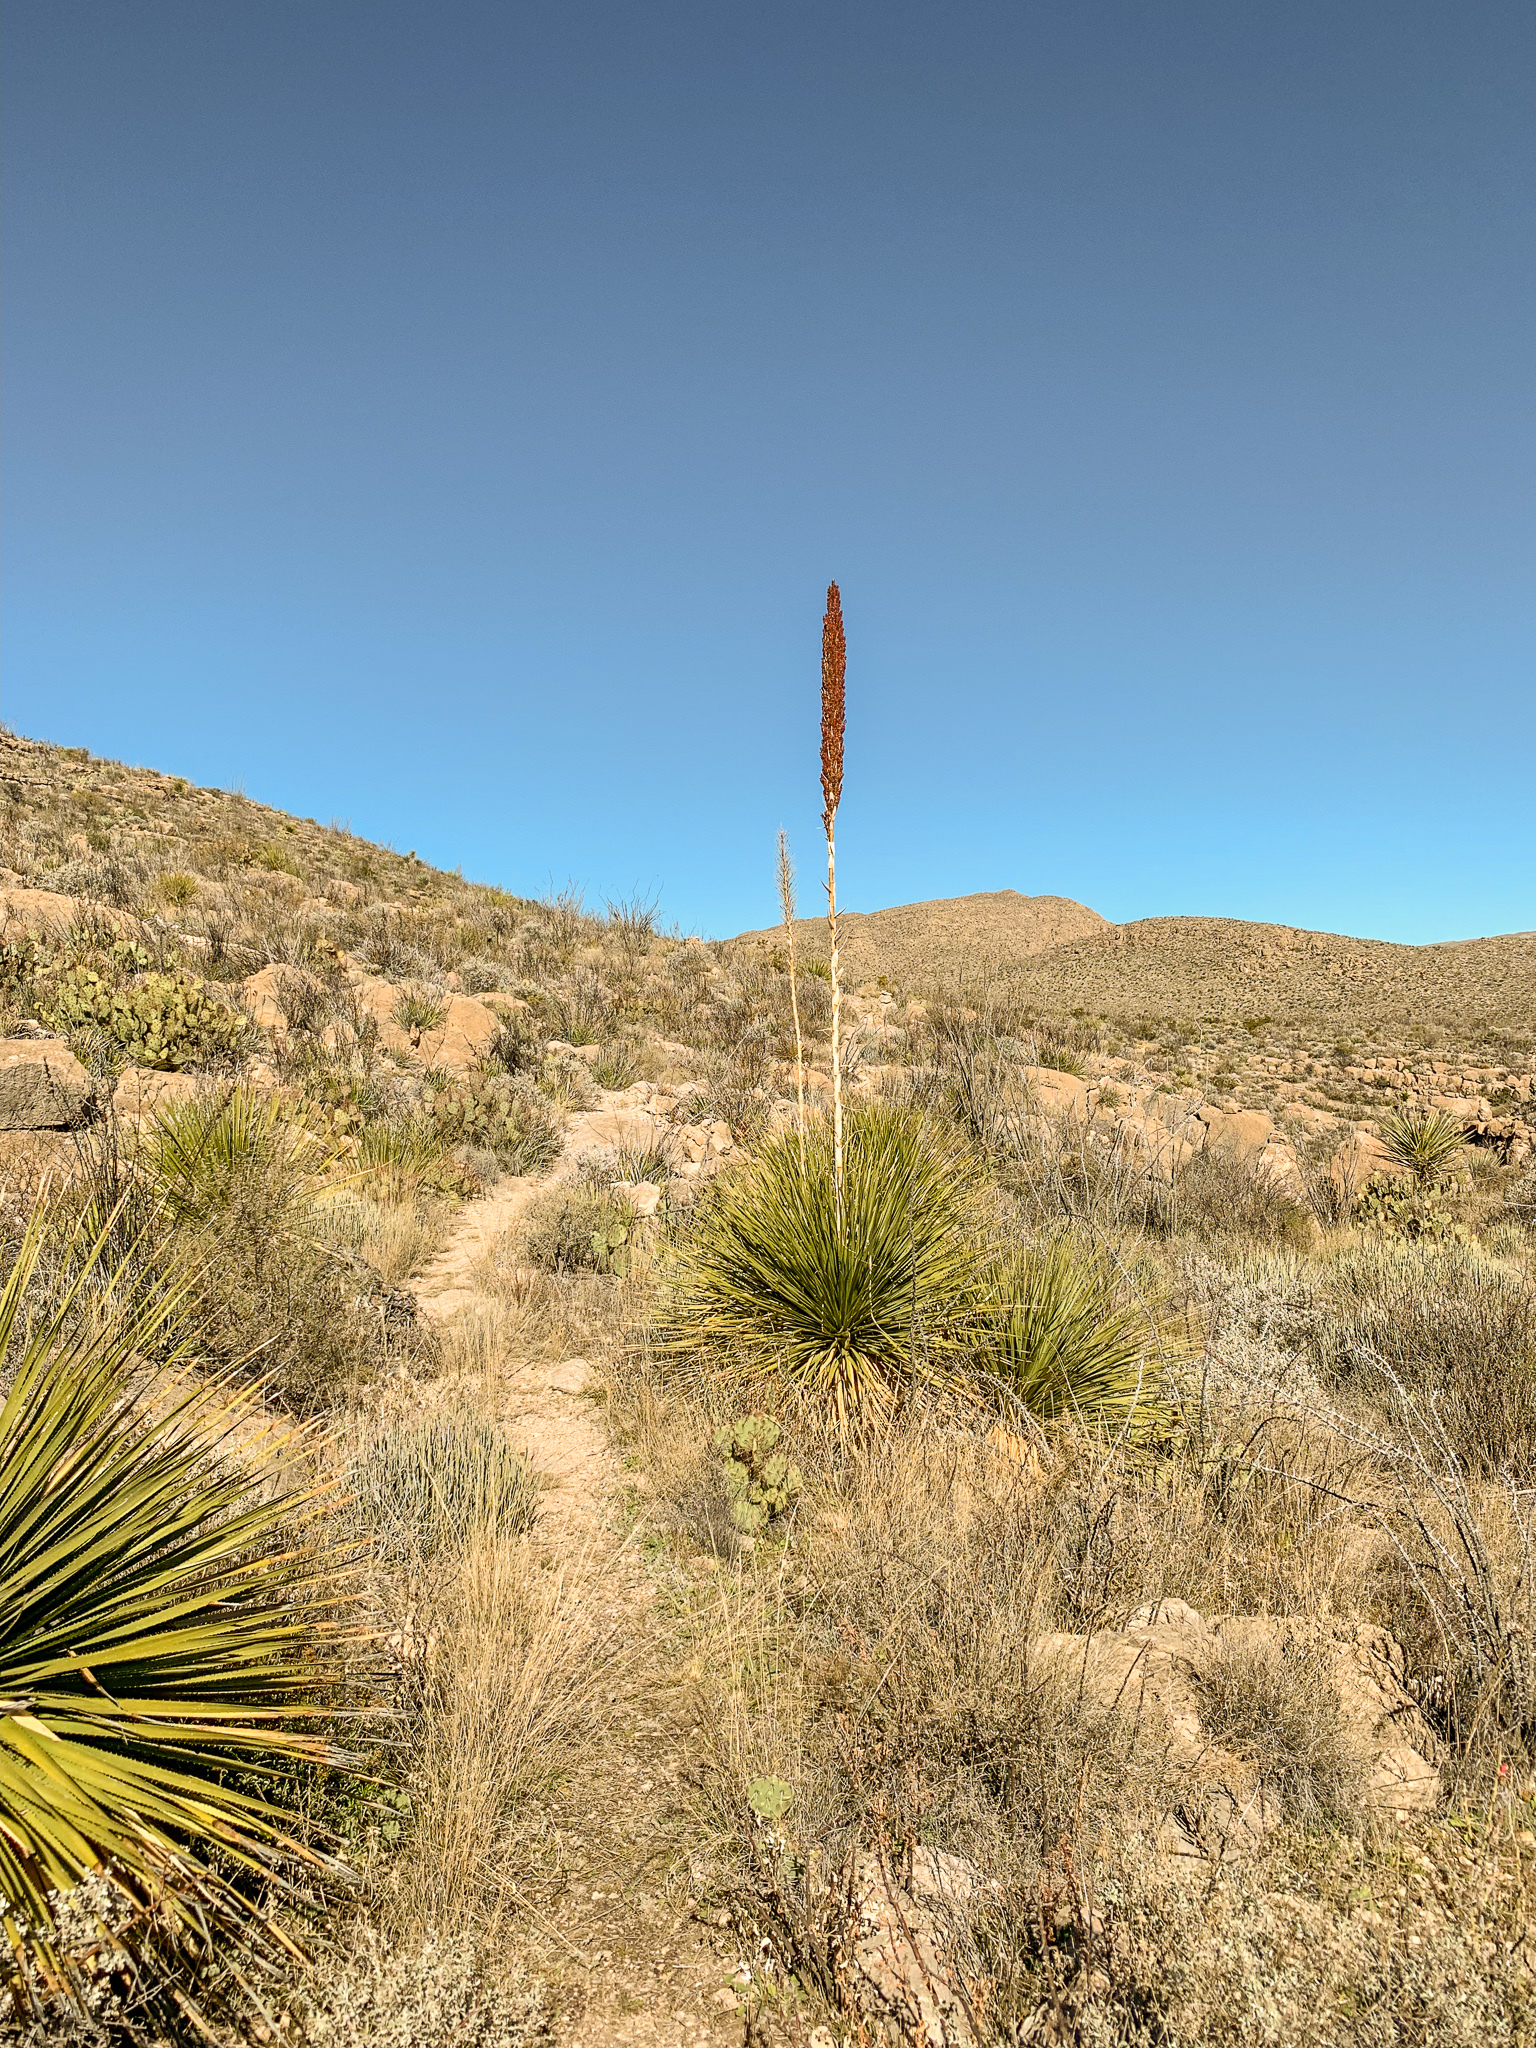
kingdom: Plantae
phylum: Tracheophyta
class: Liliopsida
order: Asparagales
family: Asparagaceae
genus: Dasylirion
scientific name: Dasylirion leiophyllum
